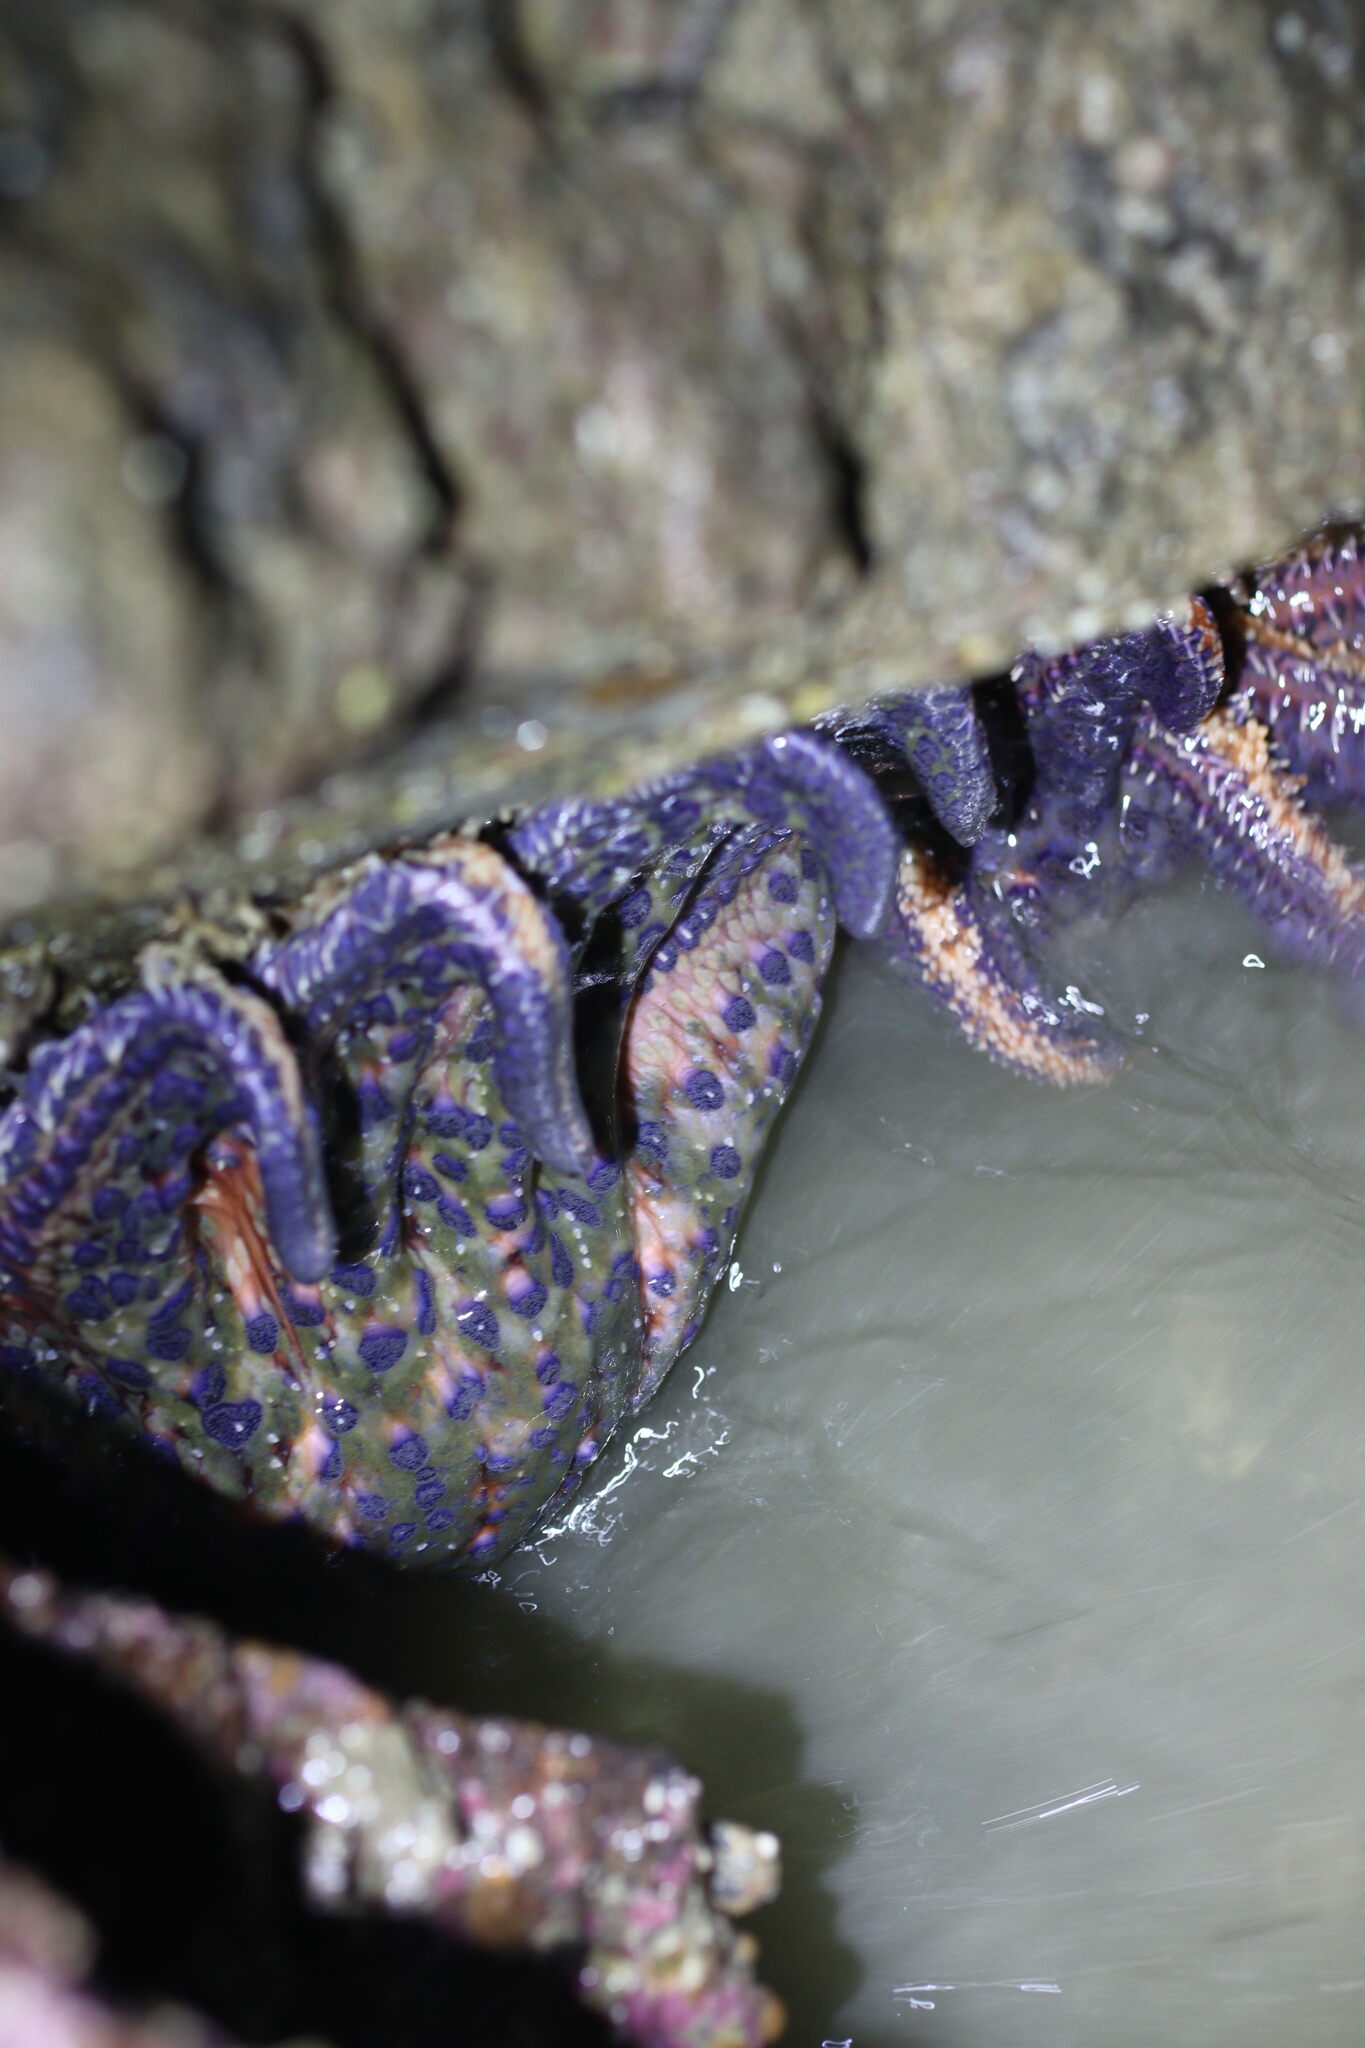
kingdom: Animalia
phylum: Echinodermata
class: Asteroidea
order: Forcipulatida
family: Asteriidae
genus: Pycnopodia
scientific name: Pycnopodia helianthoides
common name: Rag mop
